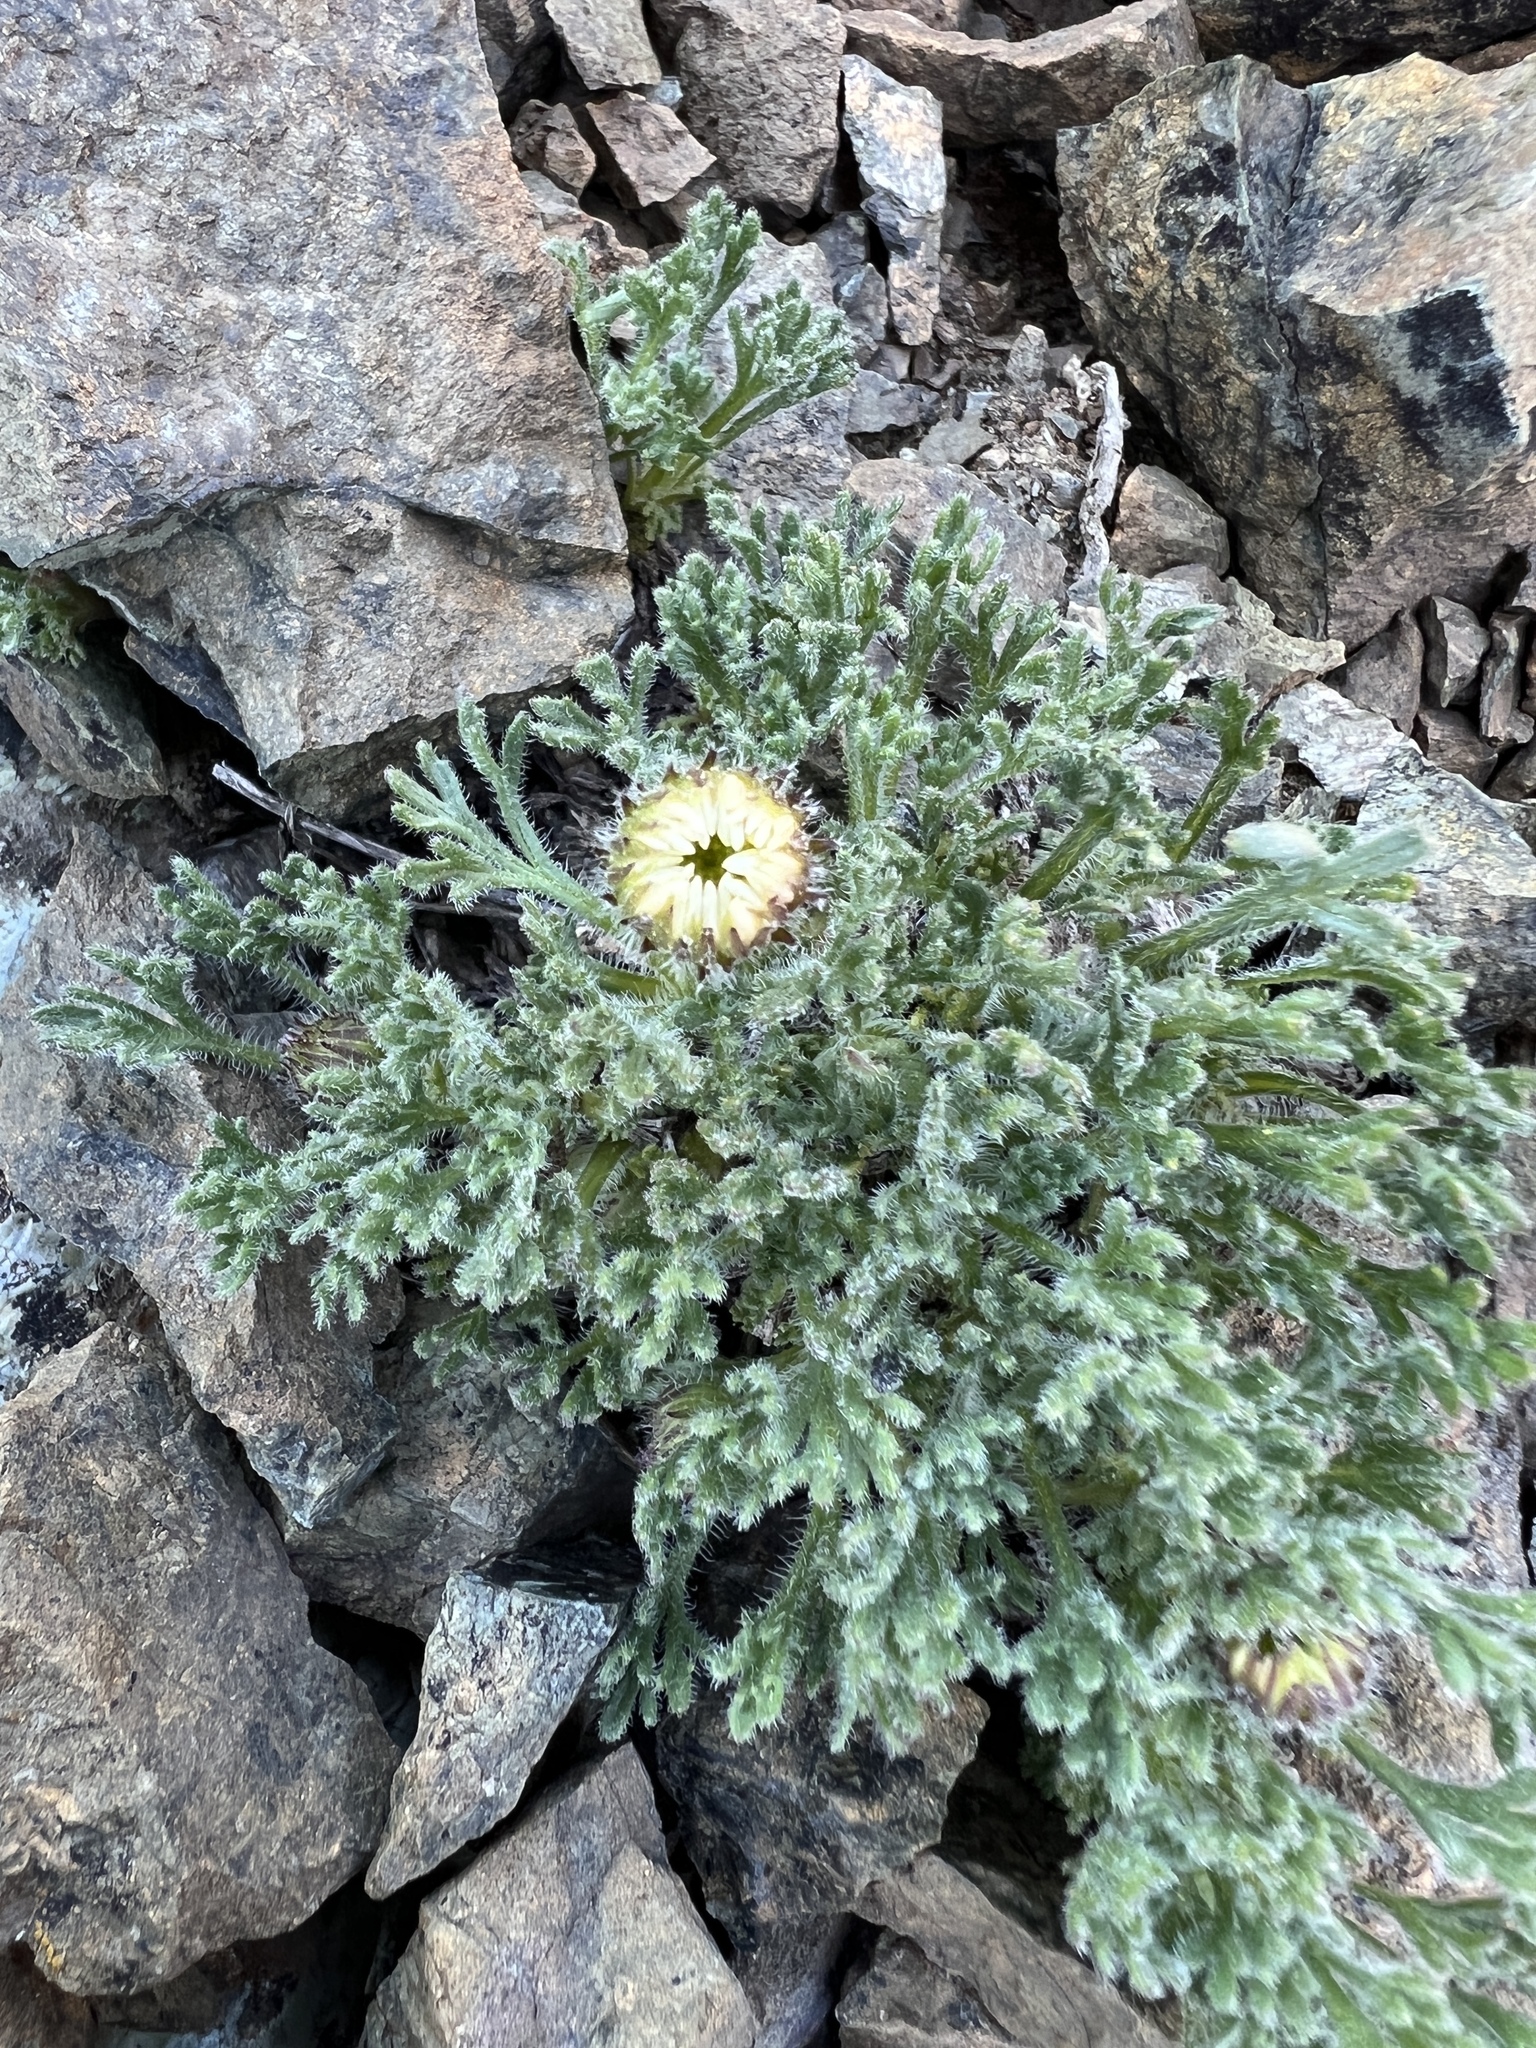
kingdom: Plantae
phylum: Tracheophyta
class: Magnoliopsida
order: Asterales
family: Asteraceae
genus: Erigeron
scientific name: Erigeron compositus
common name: Dwarf mountain fleabane
